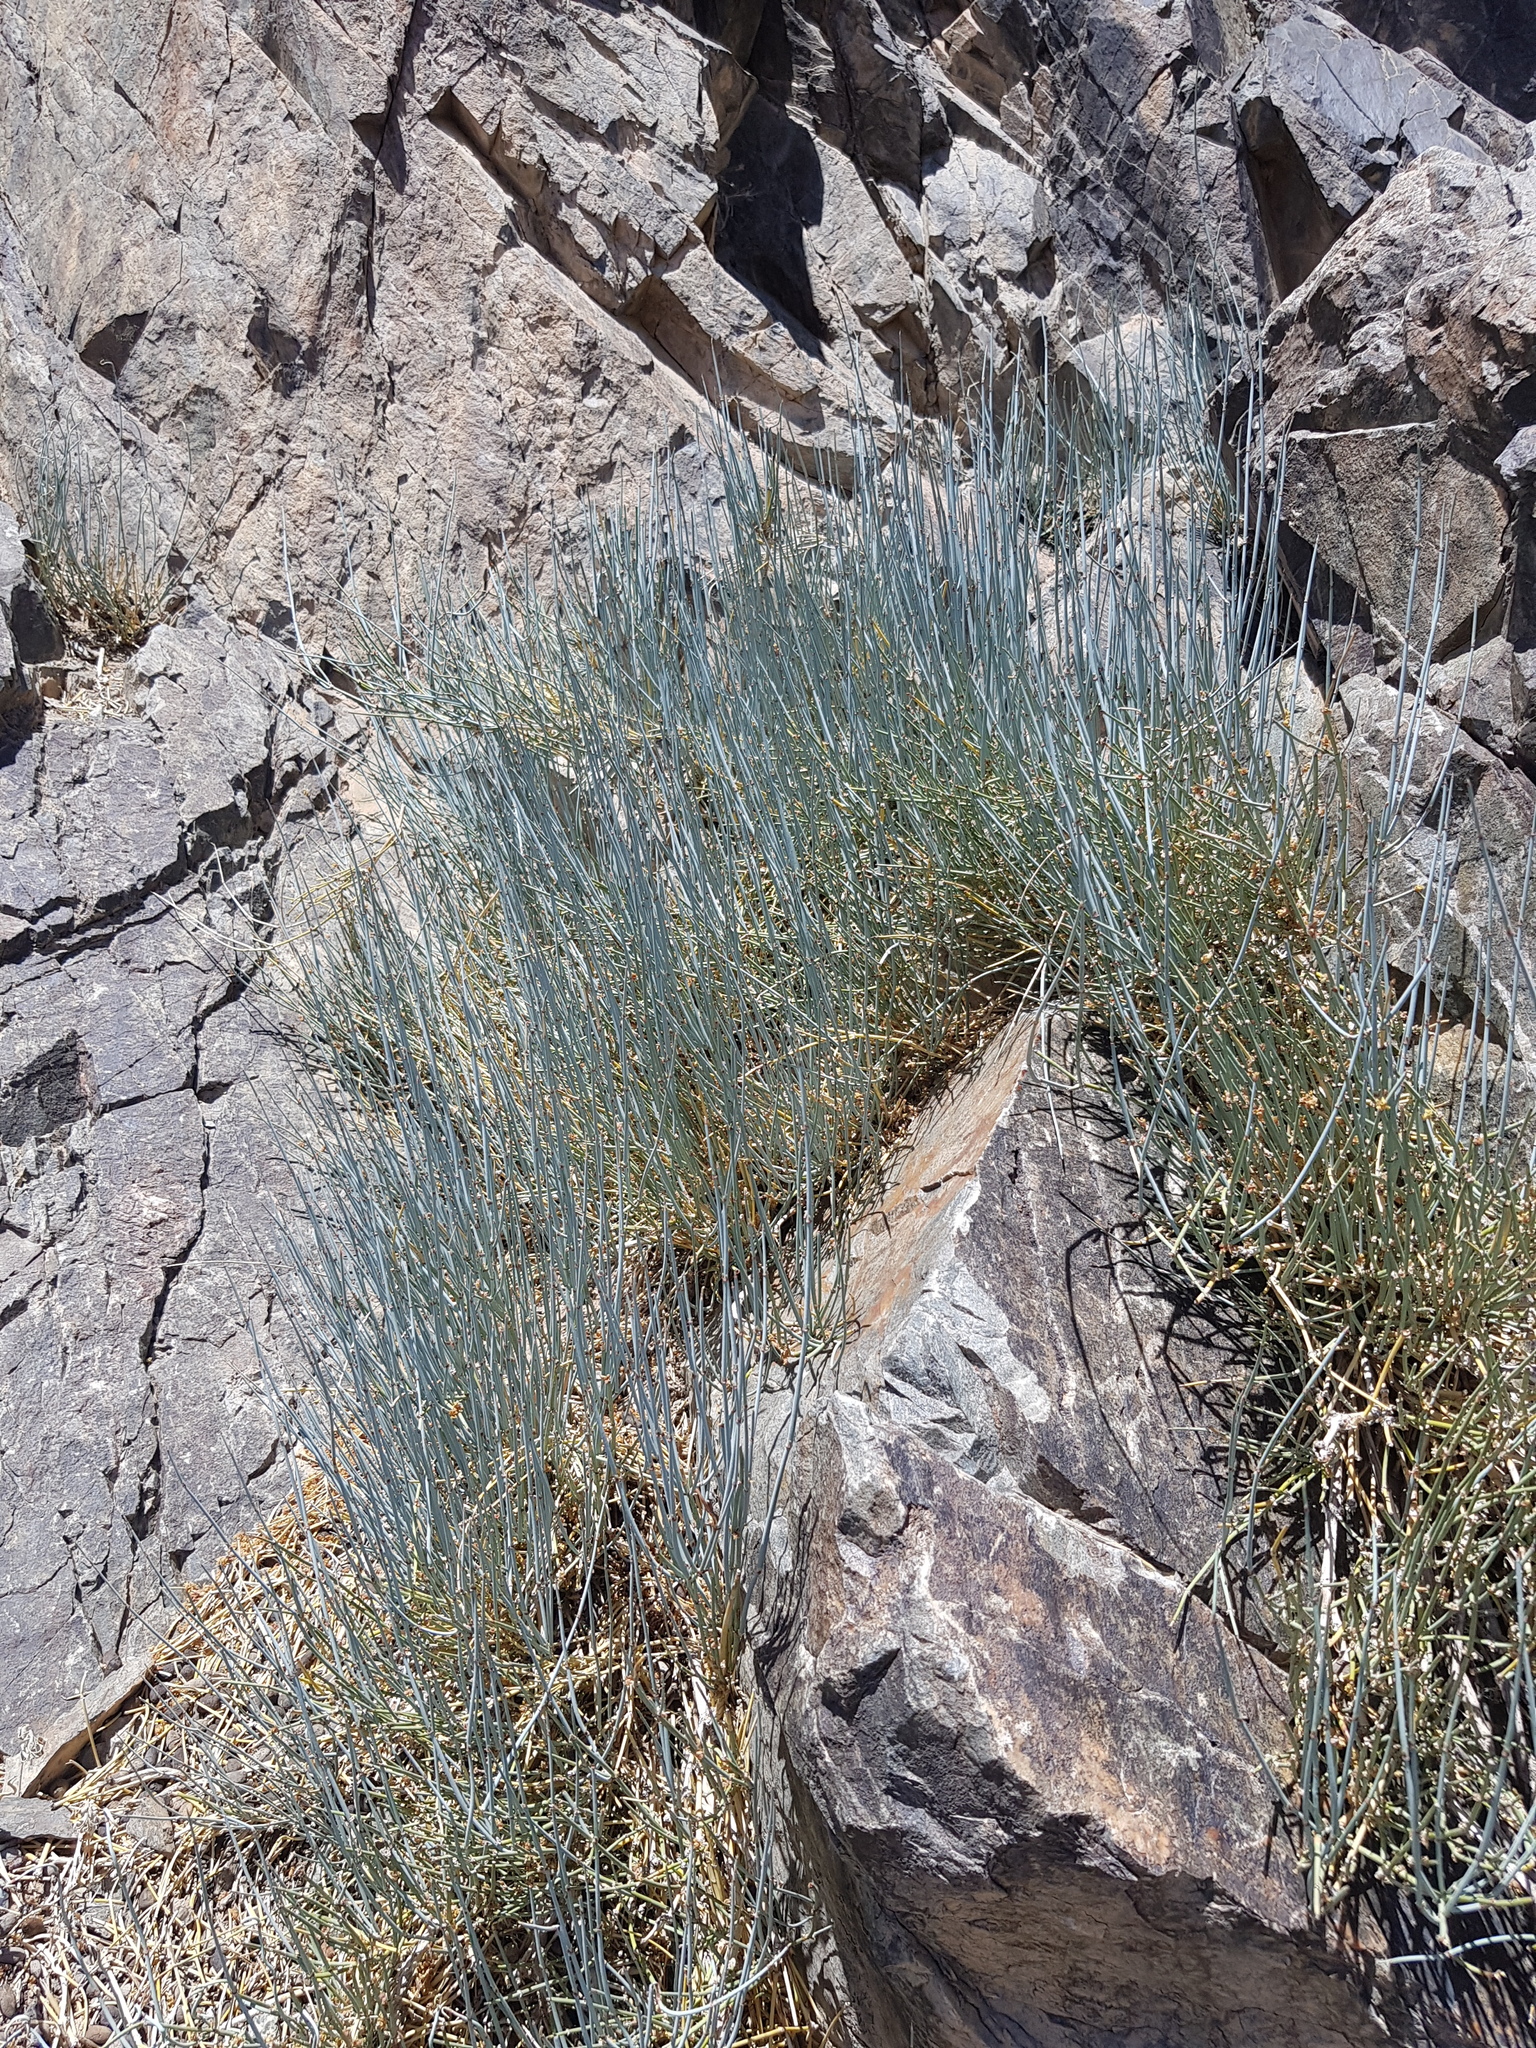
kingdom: Plantae
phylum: Tracheophyta
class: Gnetopsida
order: Ephedrales
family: Ephedraceae
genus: Ephedra
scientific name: Ephedra equisetina
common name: Mongolian ephedra
